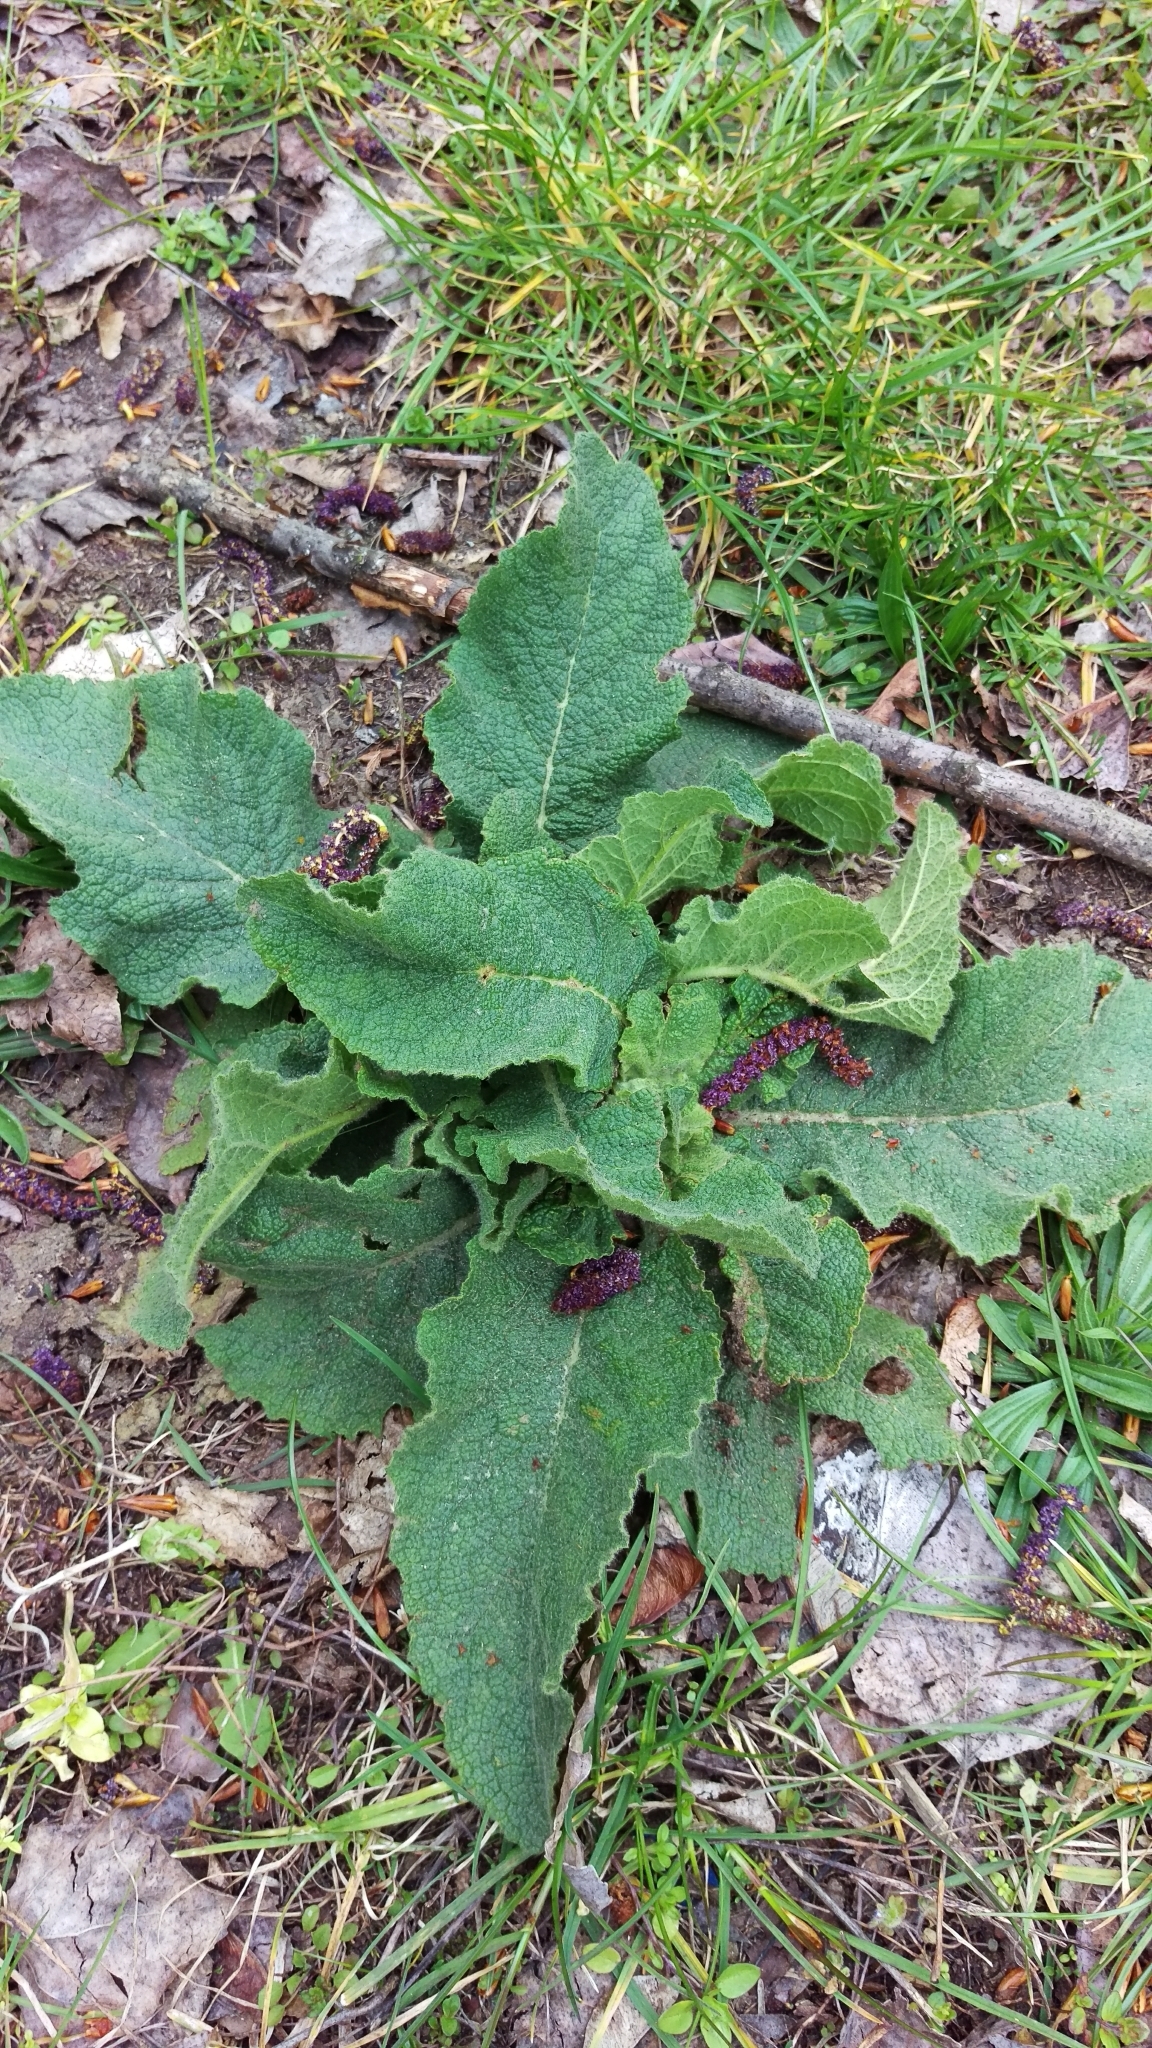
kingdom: Plantae
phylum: Tracheophyta
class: Magnoliopsida
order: Lamiales
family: Plantaginaceae
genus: Plantago
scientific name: Plantago lanceolata
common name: Ribwort plantain
